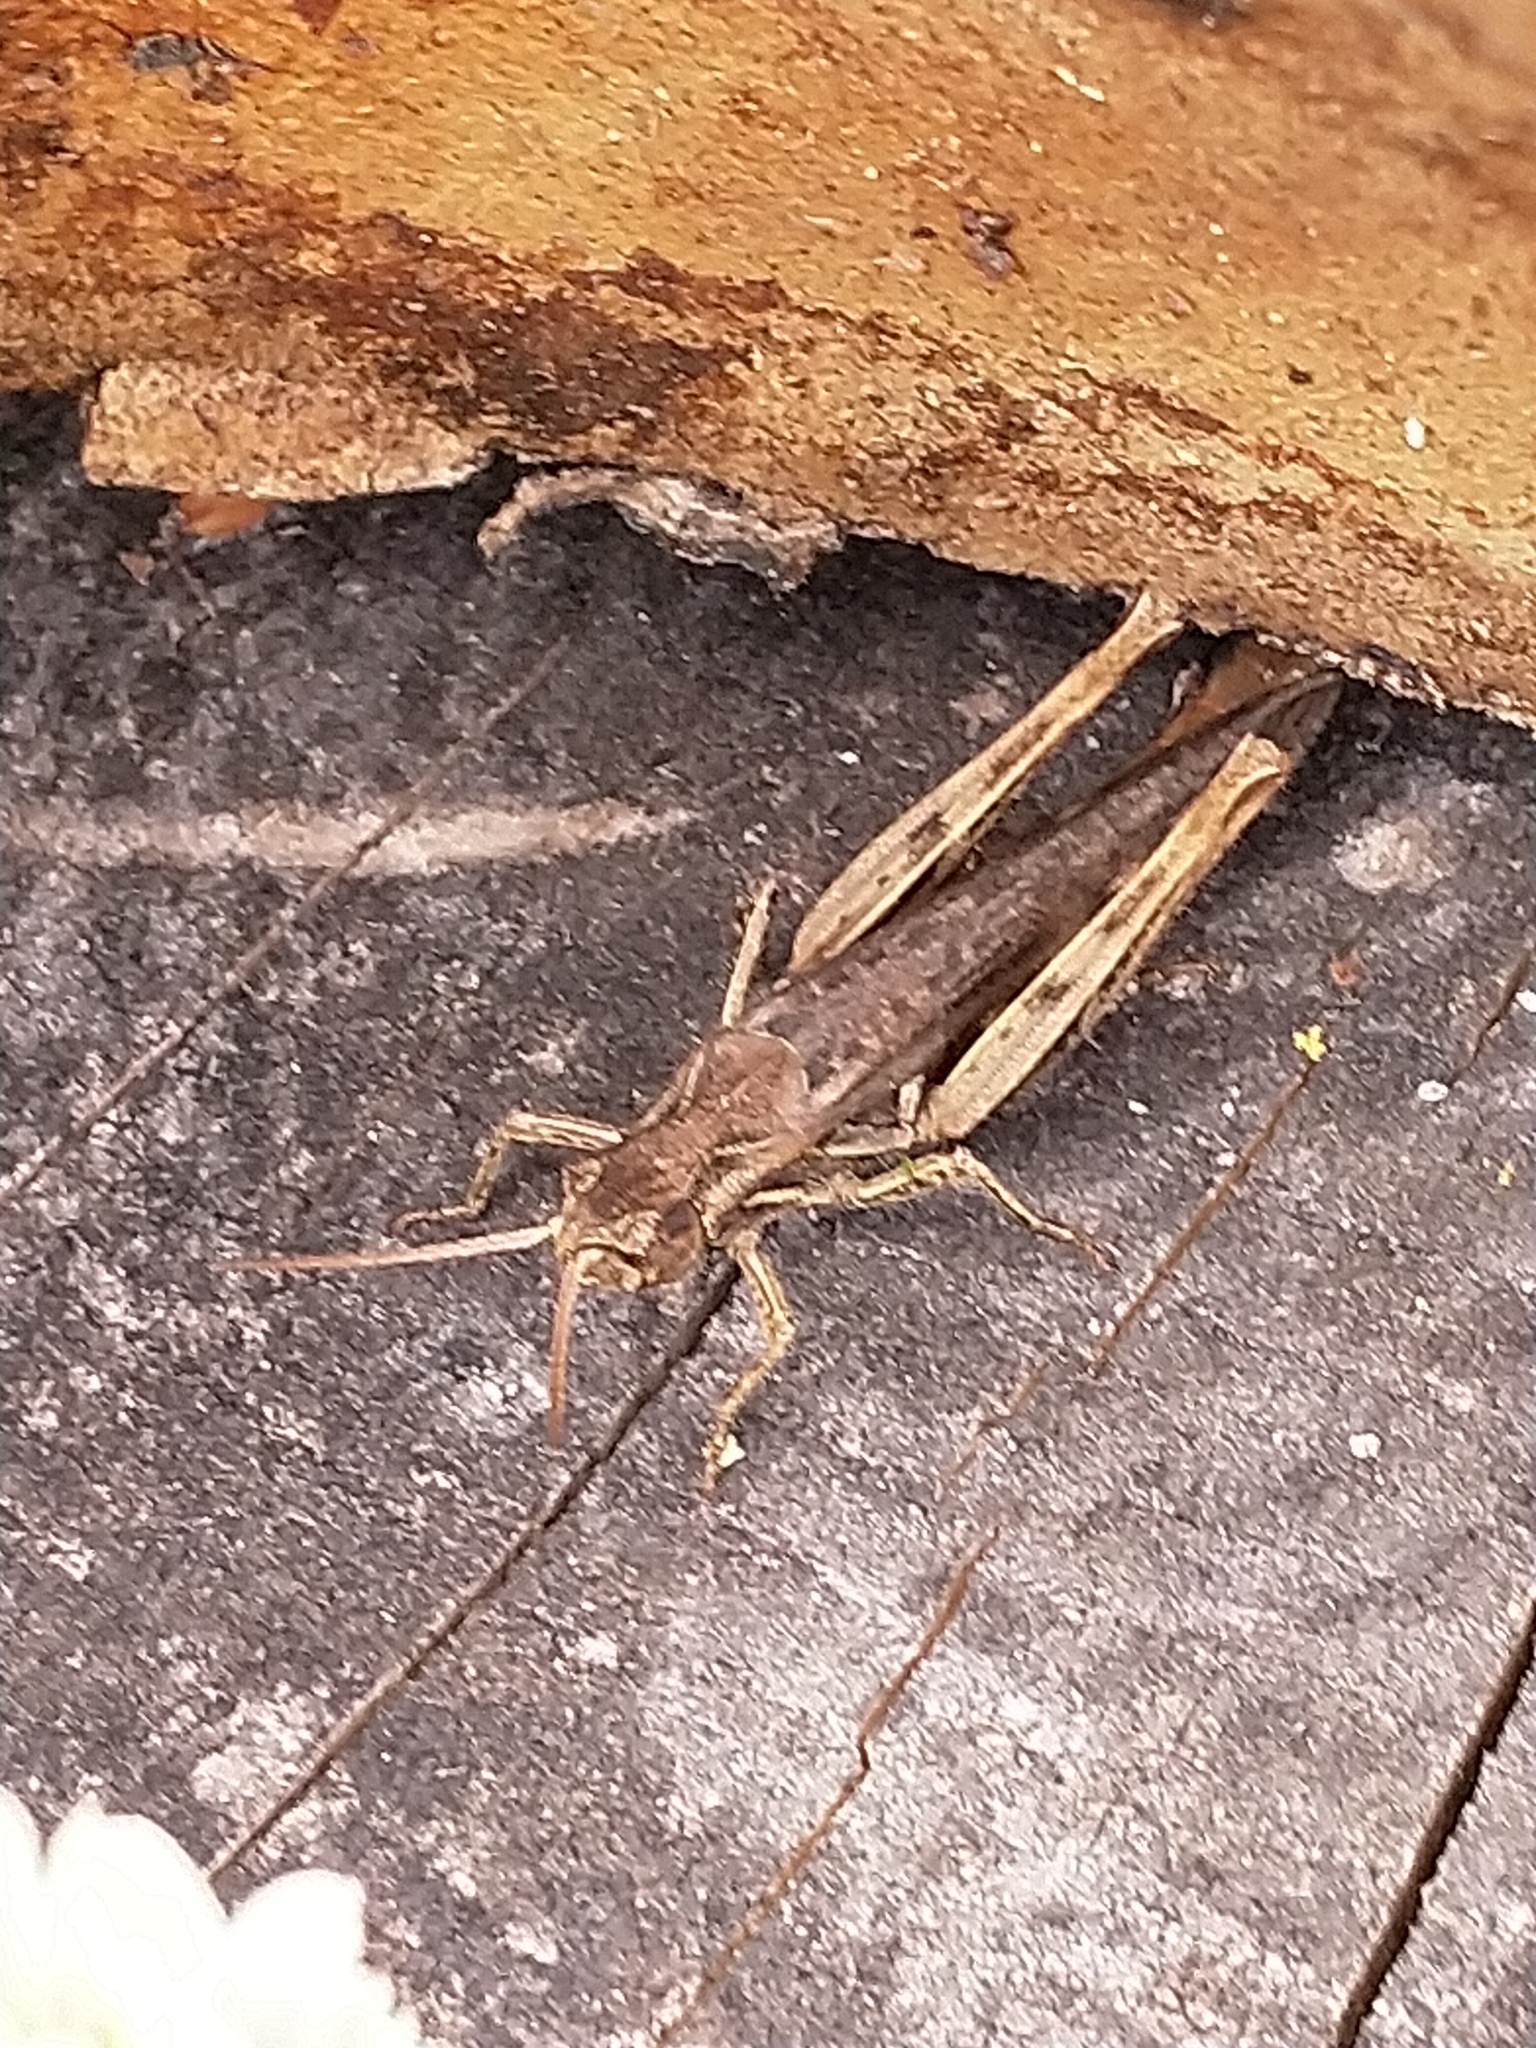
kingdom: Animalia
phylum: Arthropoda
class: Insecta
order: Orthoptera
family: Acrididae
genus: Chorthippus
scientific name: Chorthippus brunneus
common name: Field grasshopper
